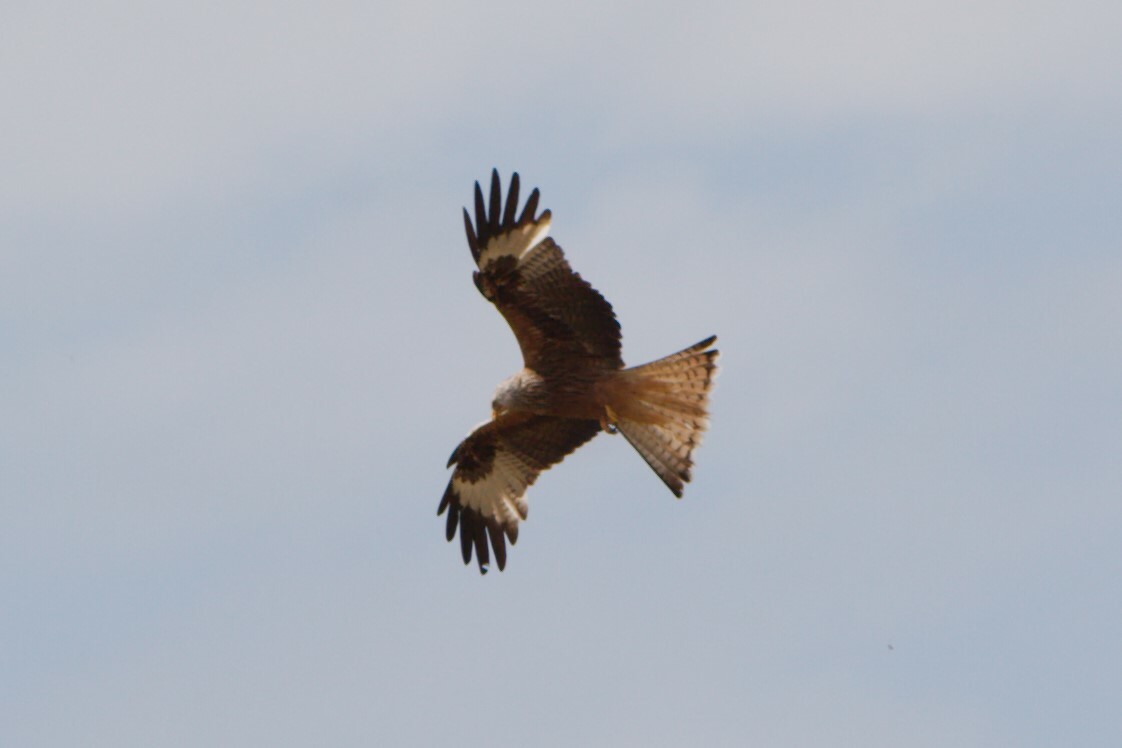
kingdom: Animalia
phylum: Chordata
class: Aves
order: Accipitriformes
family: Accipitridae
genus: Milvus
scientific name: Milvus milvus
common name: Red kite
